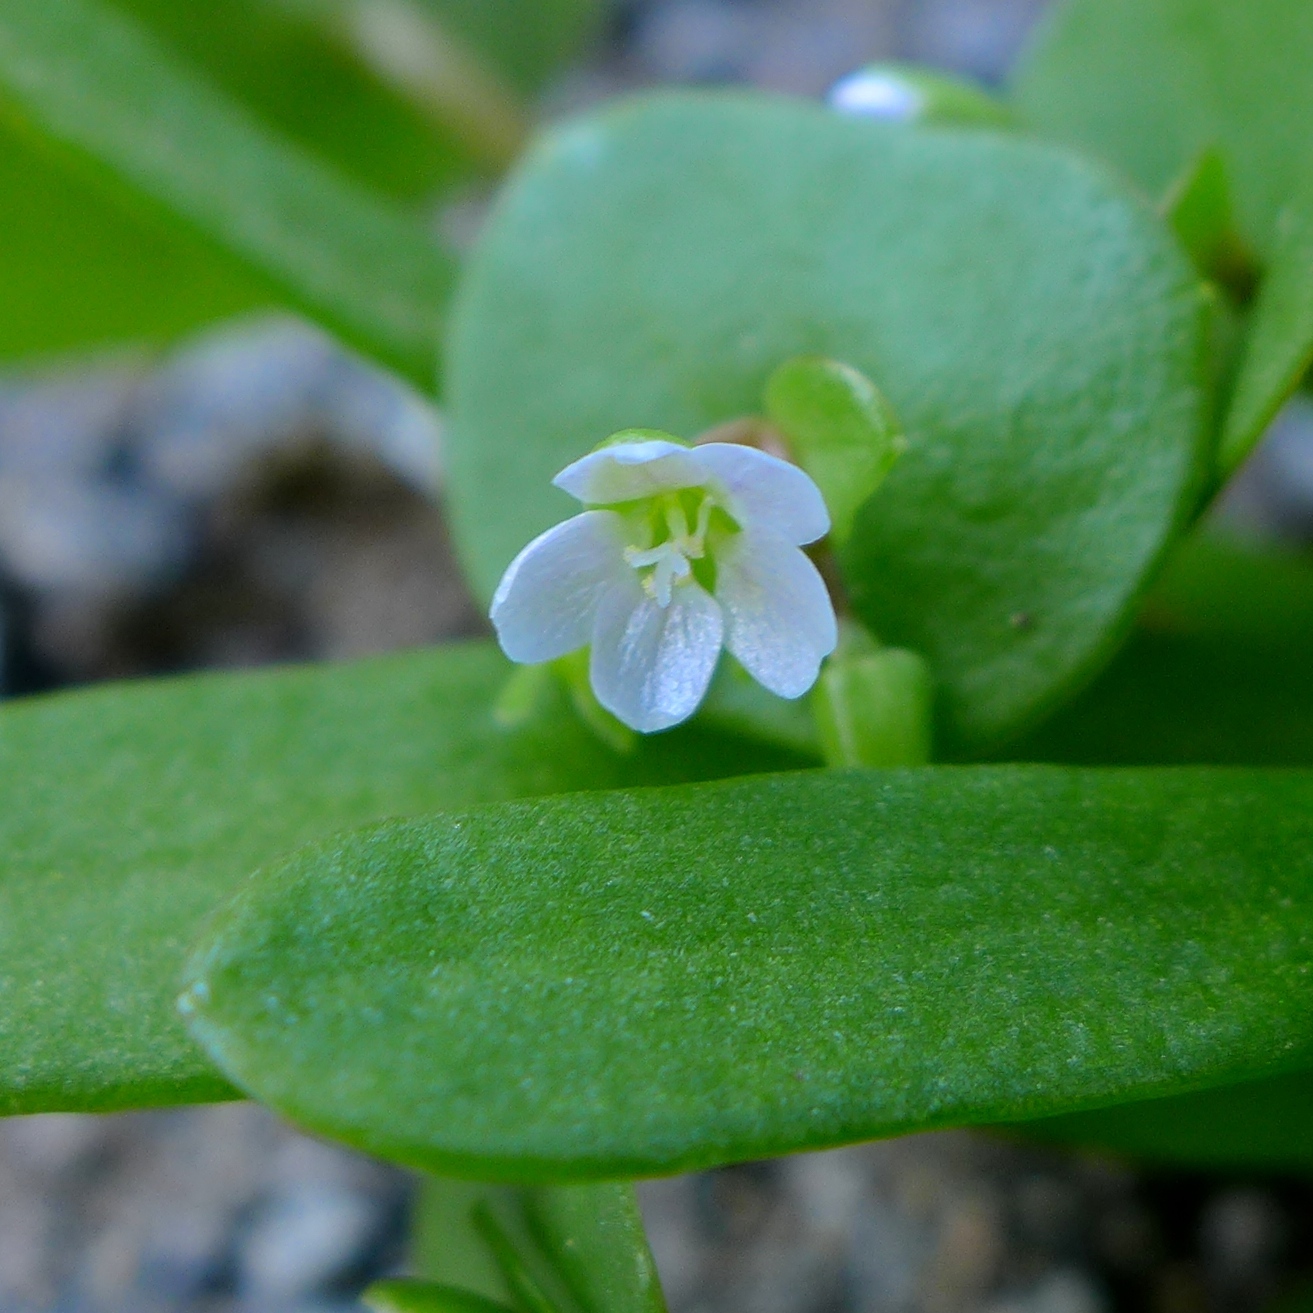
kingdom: Plantae
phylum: Tracheophyta
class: Magnoliopsida
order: Caryophyllales
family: Montiaceae
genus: Claytonia
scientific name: Claytonia perfoliata
